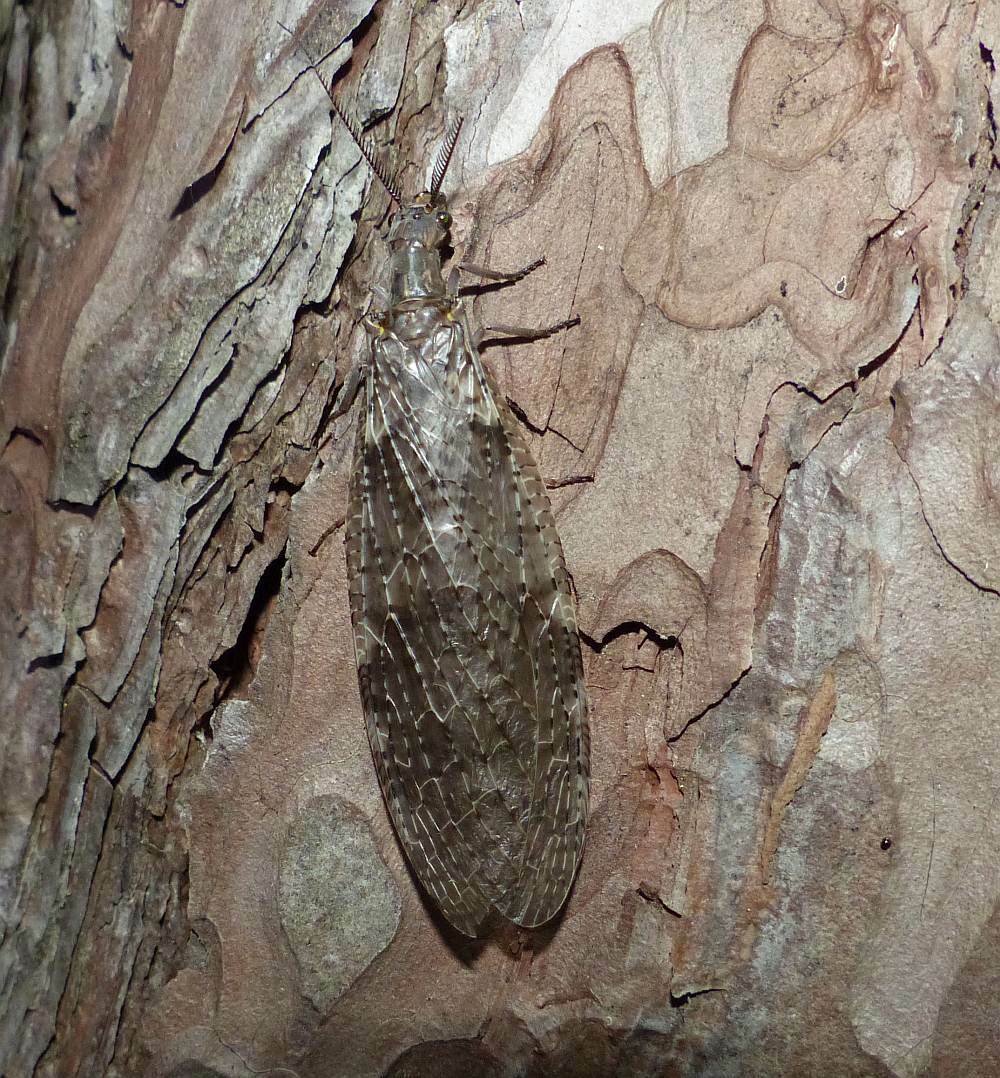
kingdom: Animalia
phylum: Arthropoda
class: Insecta
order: Megaloptera
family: Corydalidae
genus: Chauliodes
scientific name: Chauliodes pectinicornis
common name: Summer fishfly
